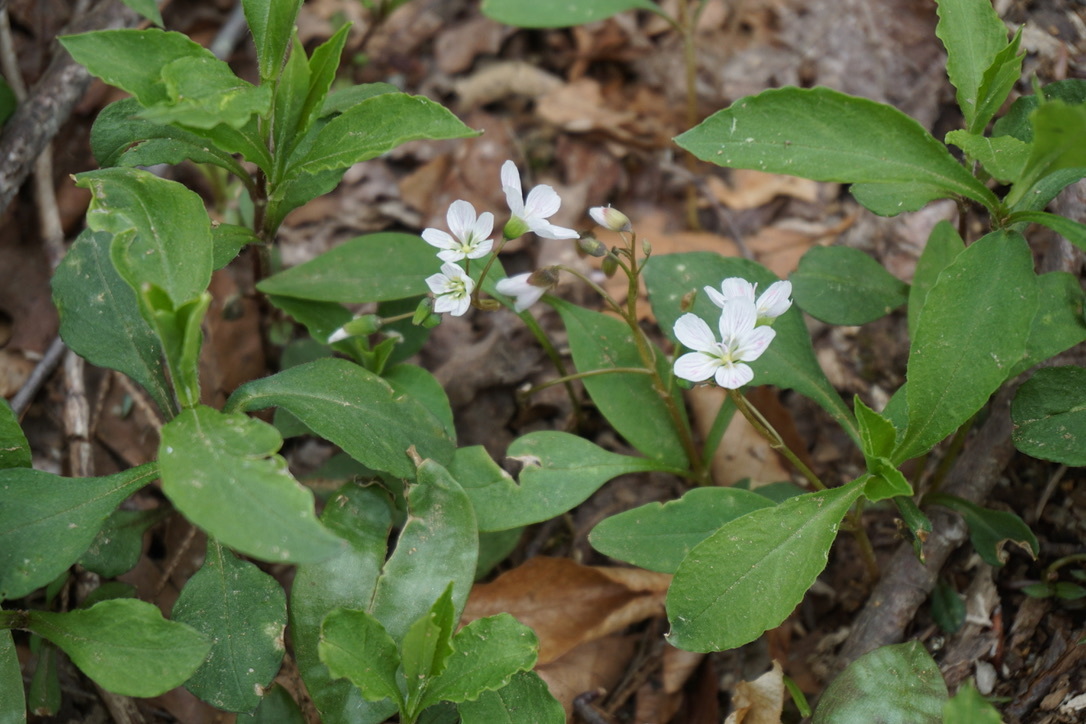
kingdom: Plantae
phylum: Tracheophyta
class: Magnoliopsida
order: Caryophyllales
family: Montiaceae
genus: Claytonia
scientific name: Claytonia caroliniana
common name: Carolina spring beauty
